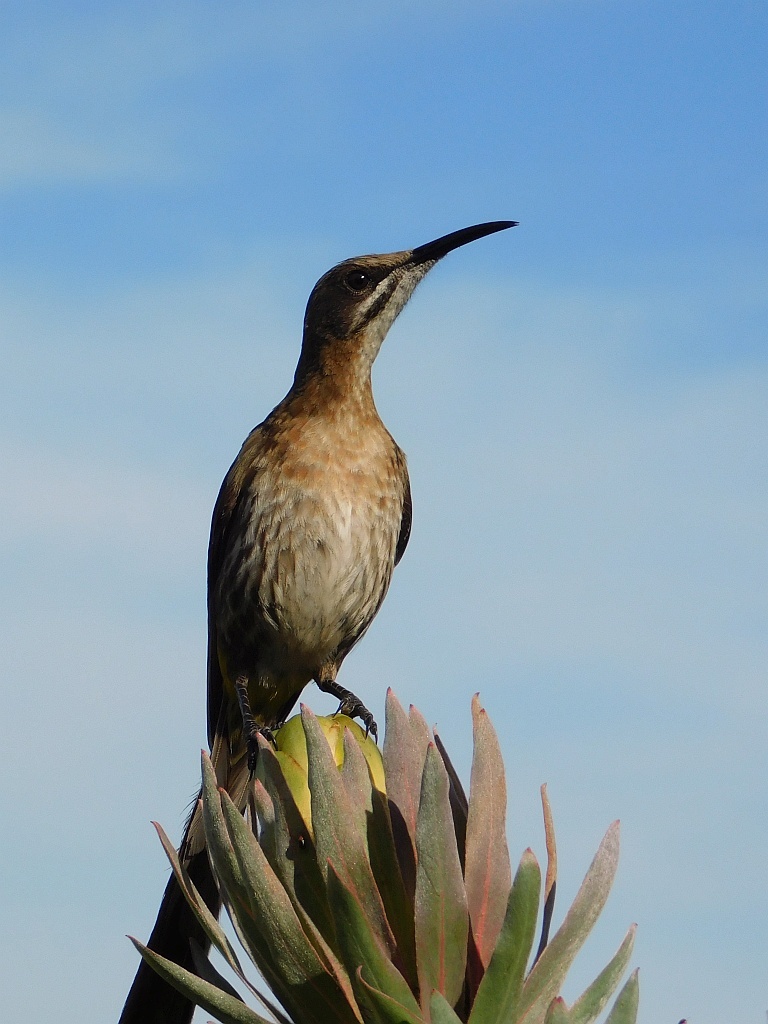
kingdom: Animalia
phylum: Chordata
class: Aves
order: Passeriformes
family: Promeropidae
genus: Promerops
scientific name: Promerops cafer
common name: Cape sugarbird
